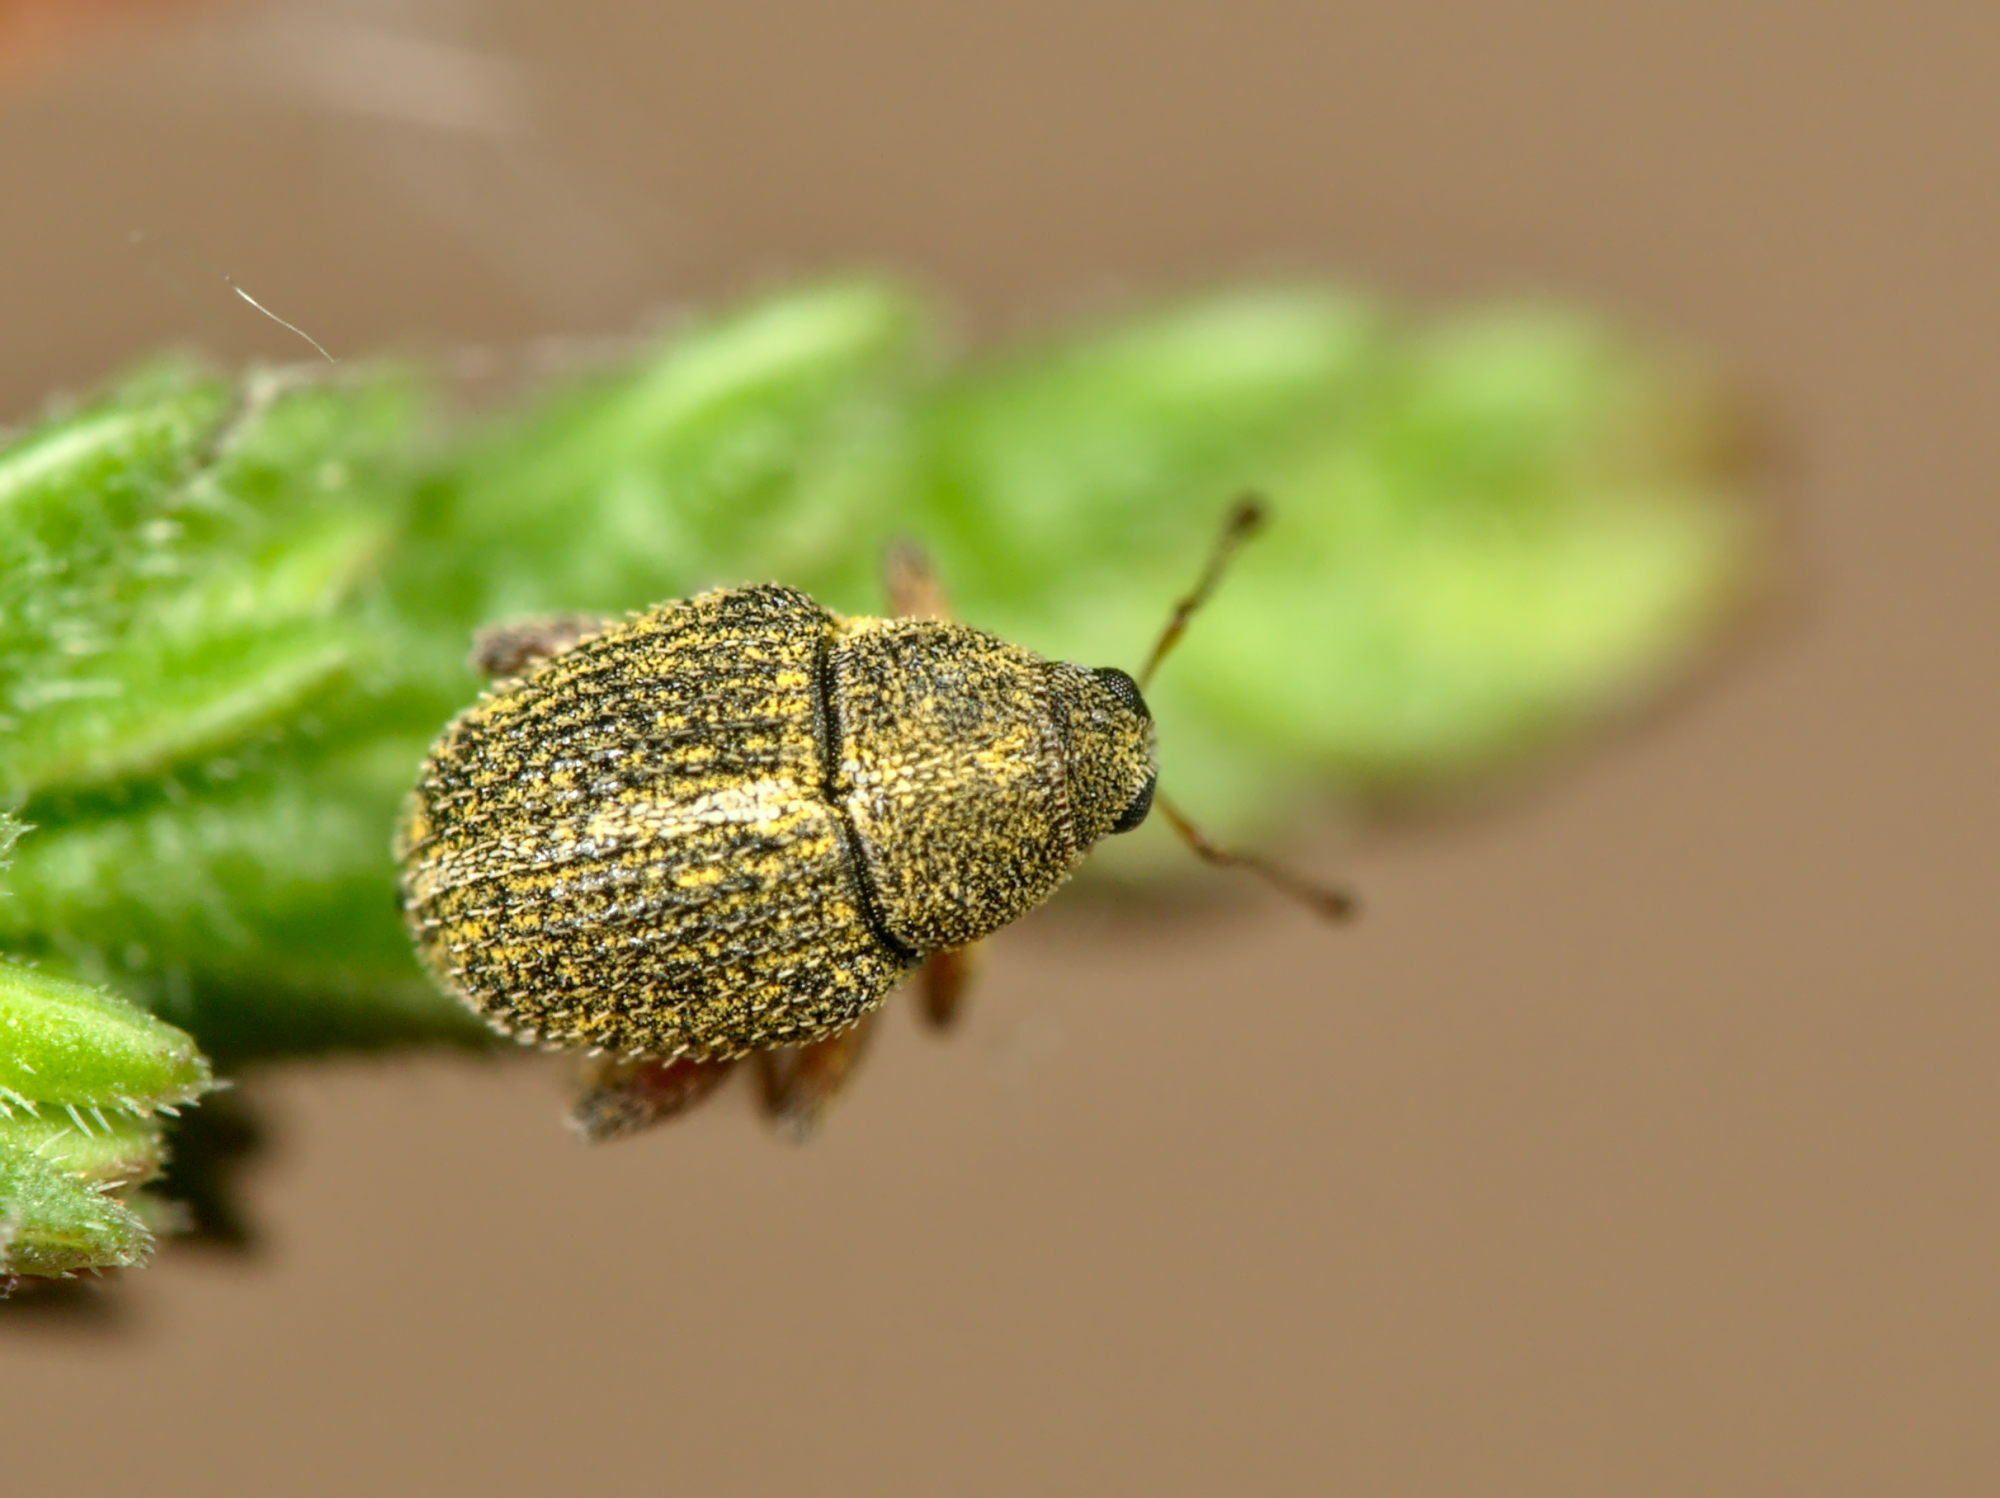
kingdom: Animalia
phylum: Arthropoda
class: Insecta
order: Coleoptera
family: Curculionidae
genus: Micrelus
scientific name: Micrelus ericae
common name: Small heather weevil
